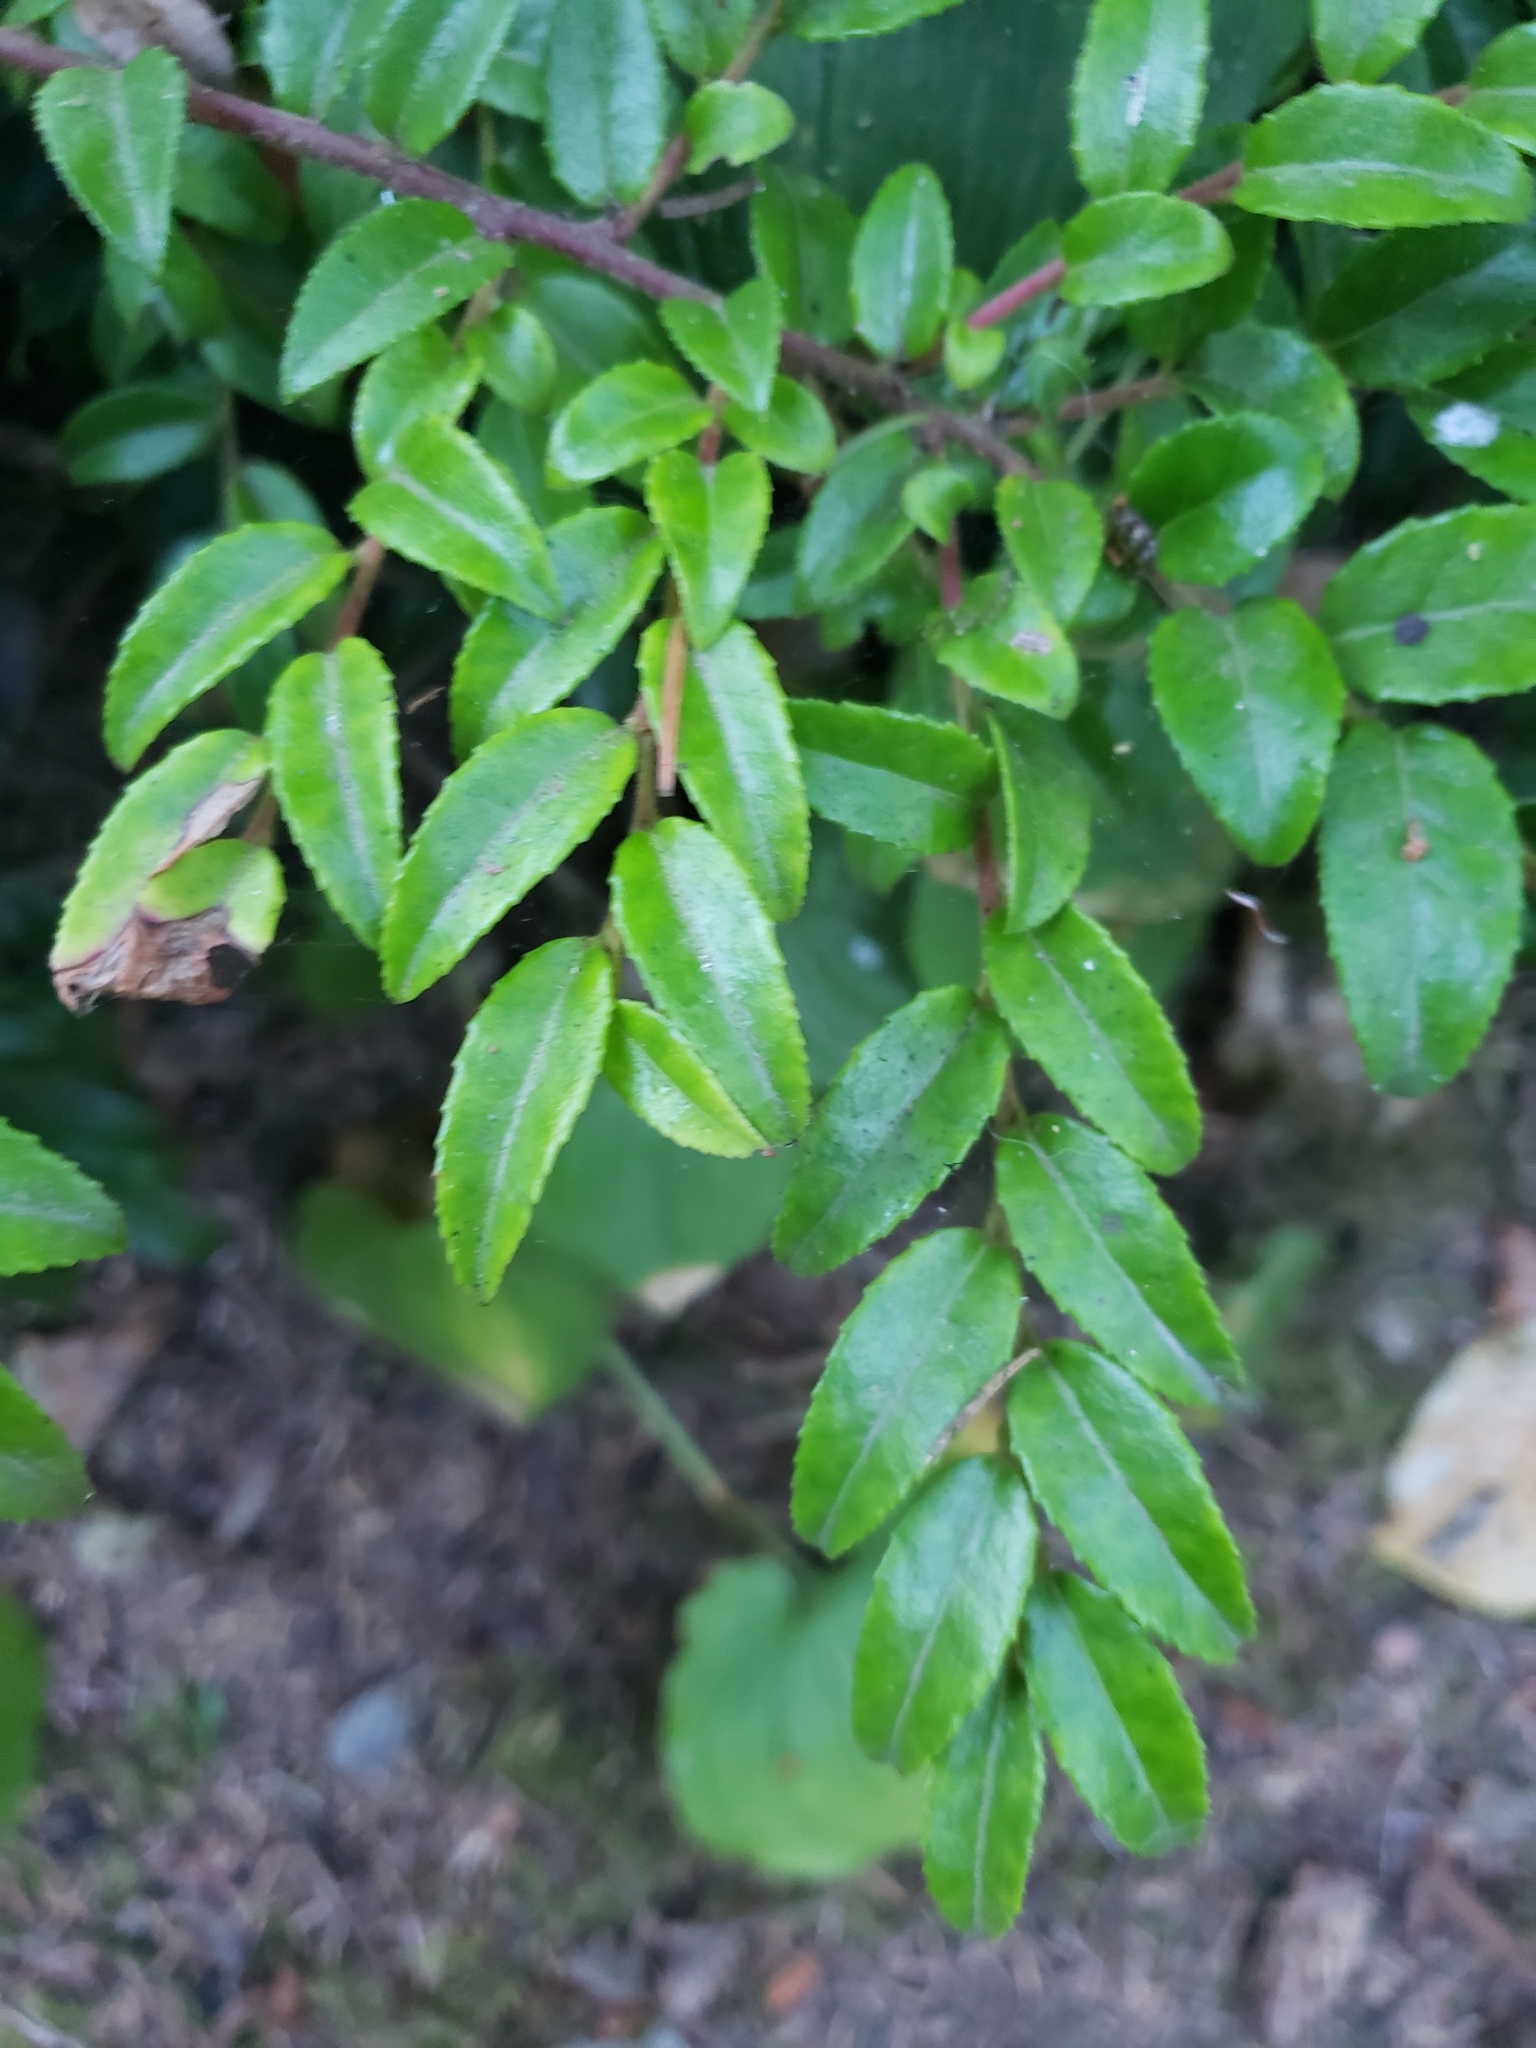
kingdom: Plantae
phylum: Tracheophyta
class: Magnoliopsida
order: Ericales
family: Ericaceae
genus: Vaccinium
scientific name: Vaccinium ovatum
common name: California-huckleberry
